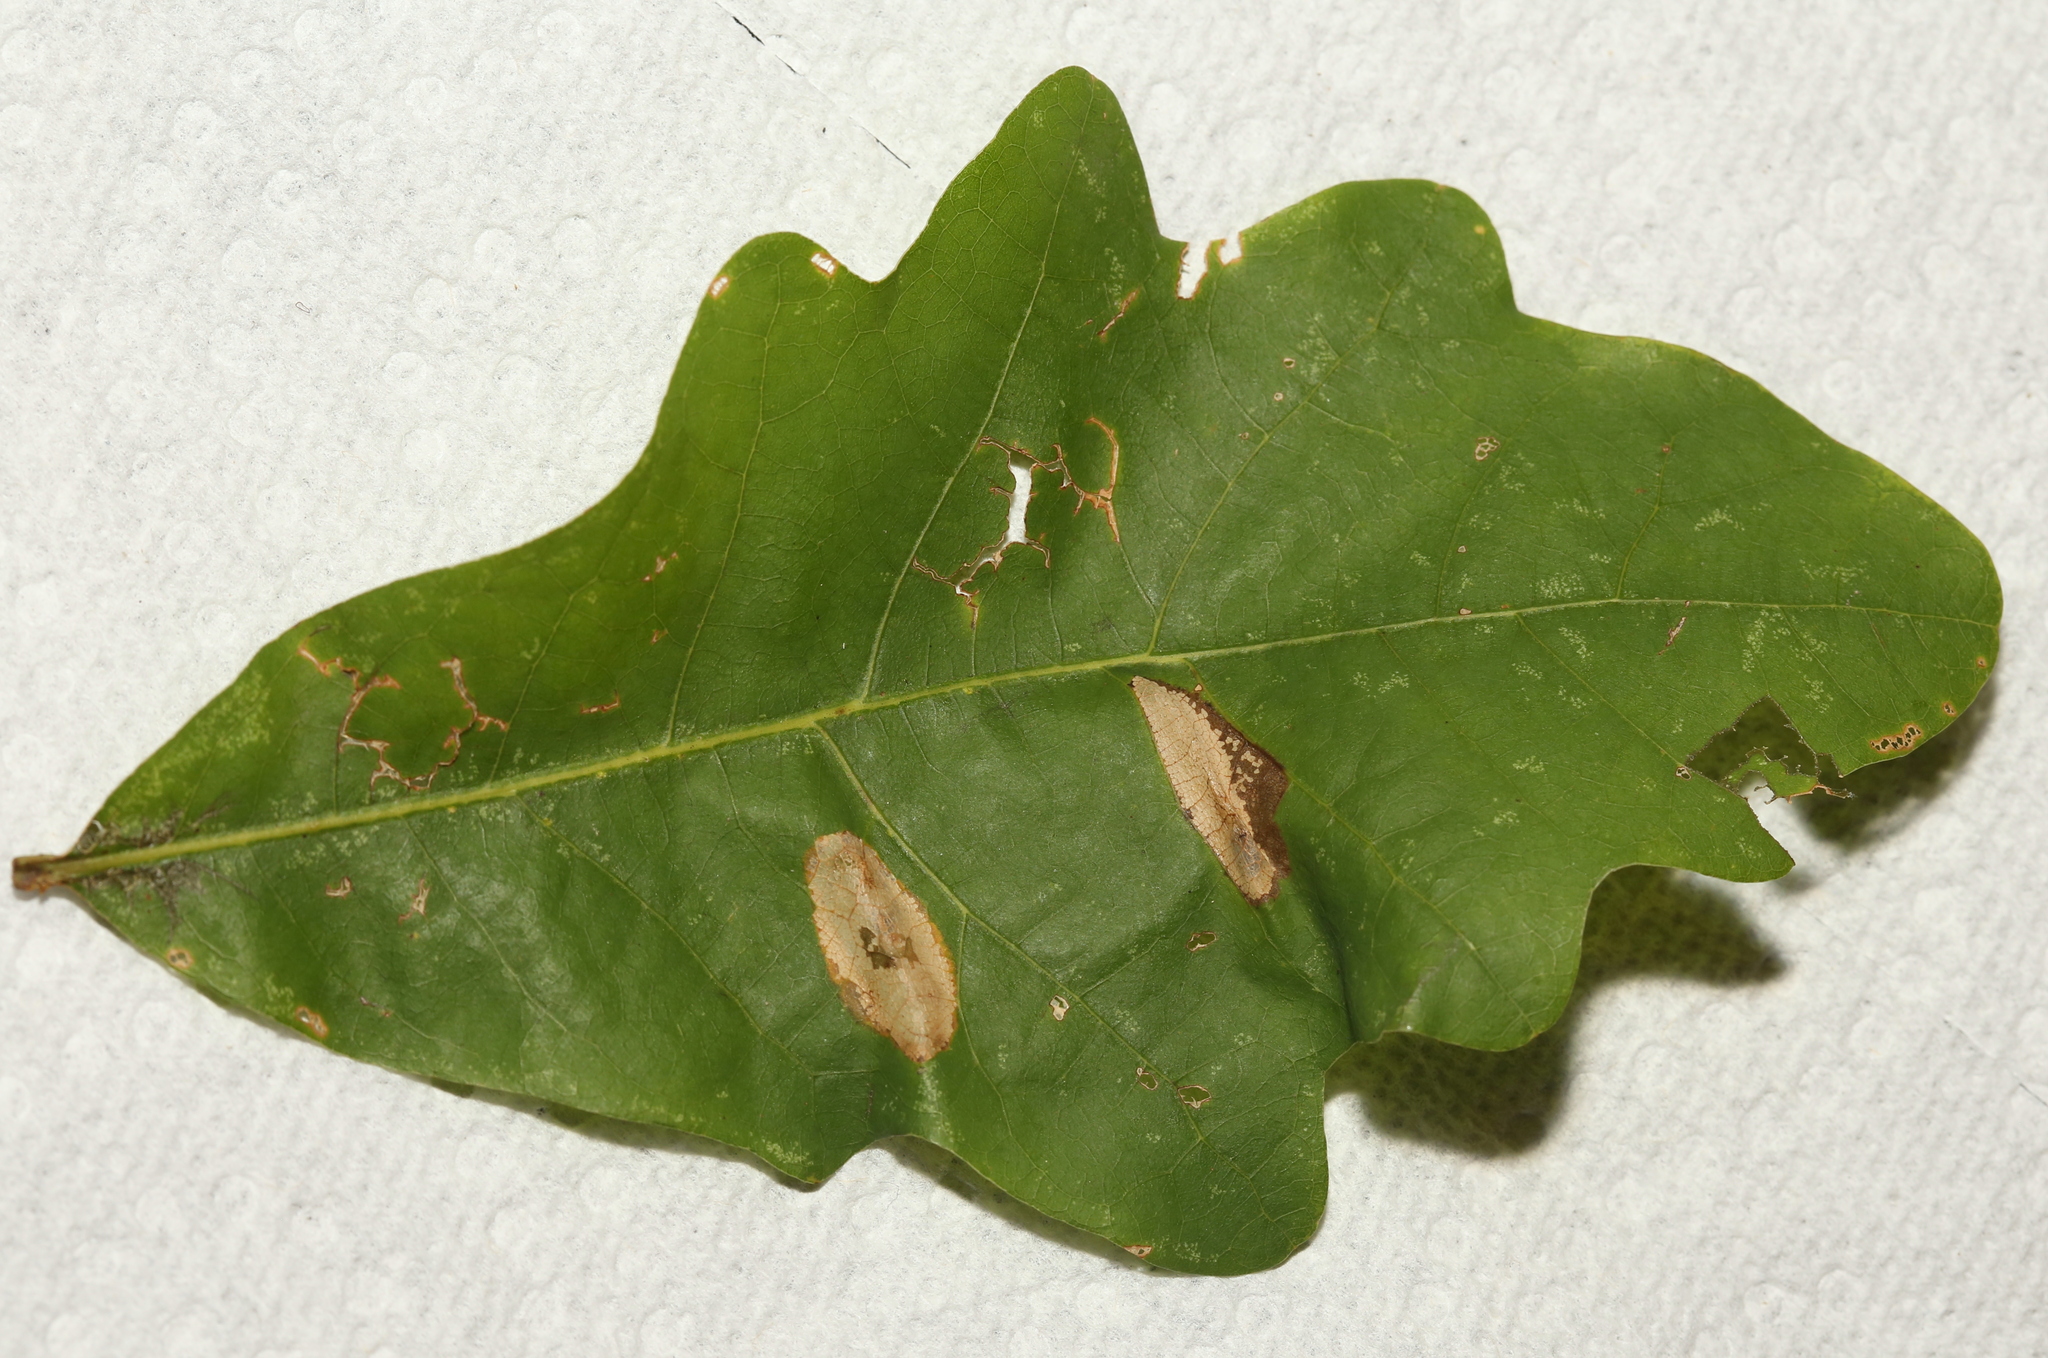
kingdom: Animalia
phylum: Arthropoda
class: Insecta
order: Lepidoptera
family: Gracillariidae
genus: Phyllonorycter
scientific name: Phyllonorycter aeriferella
